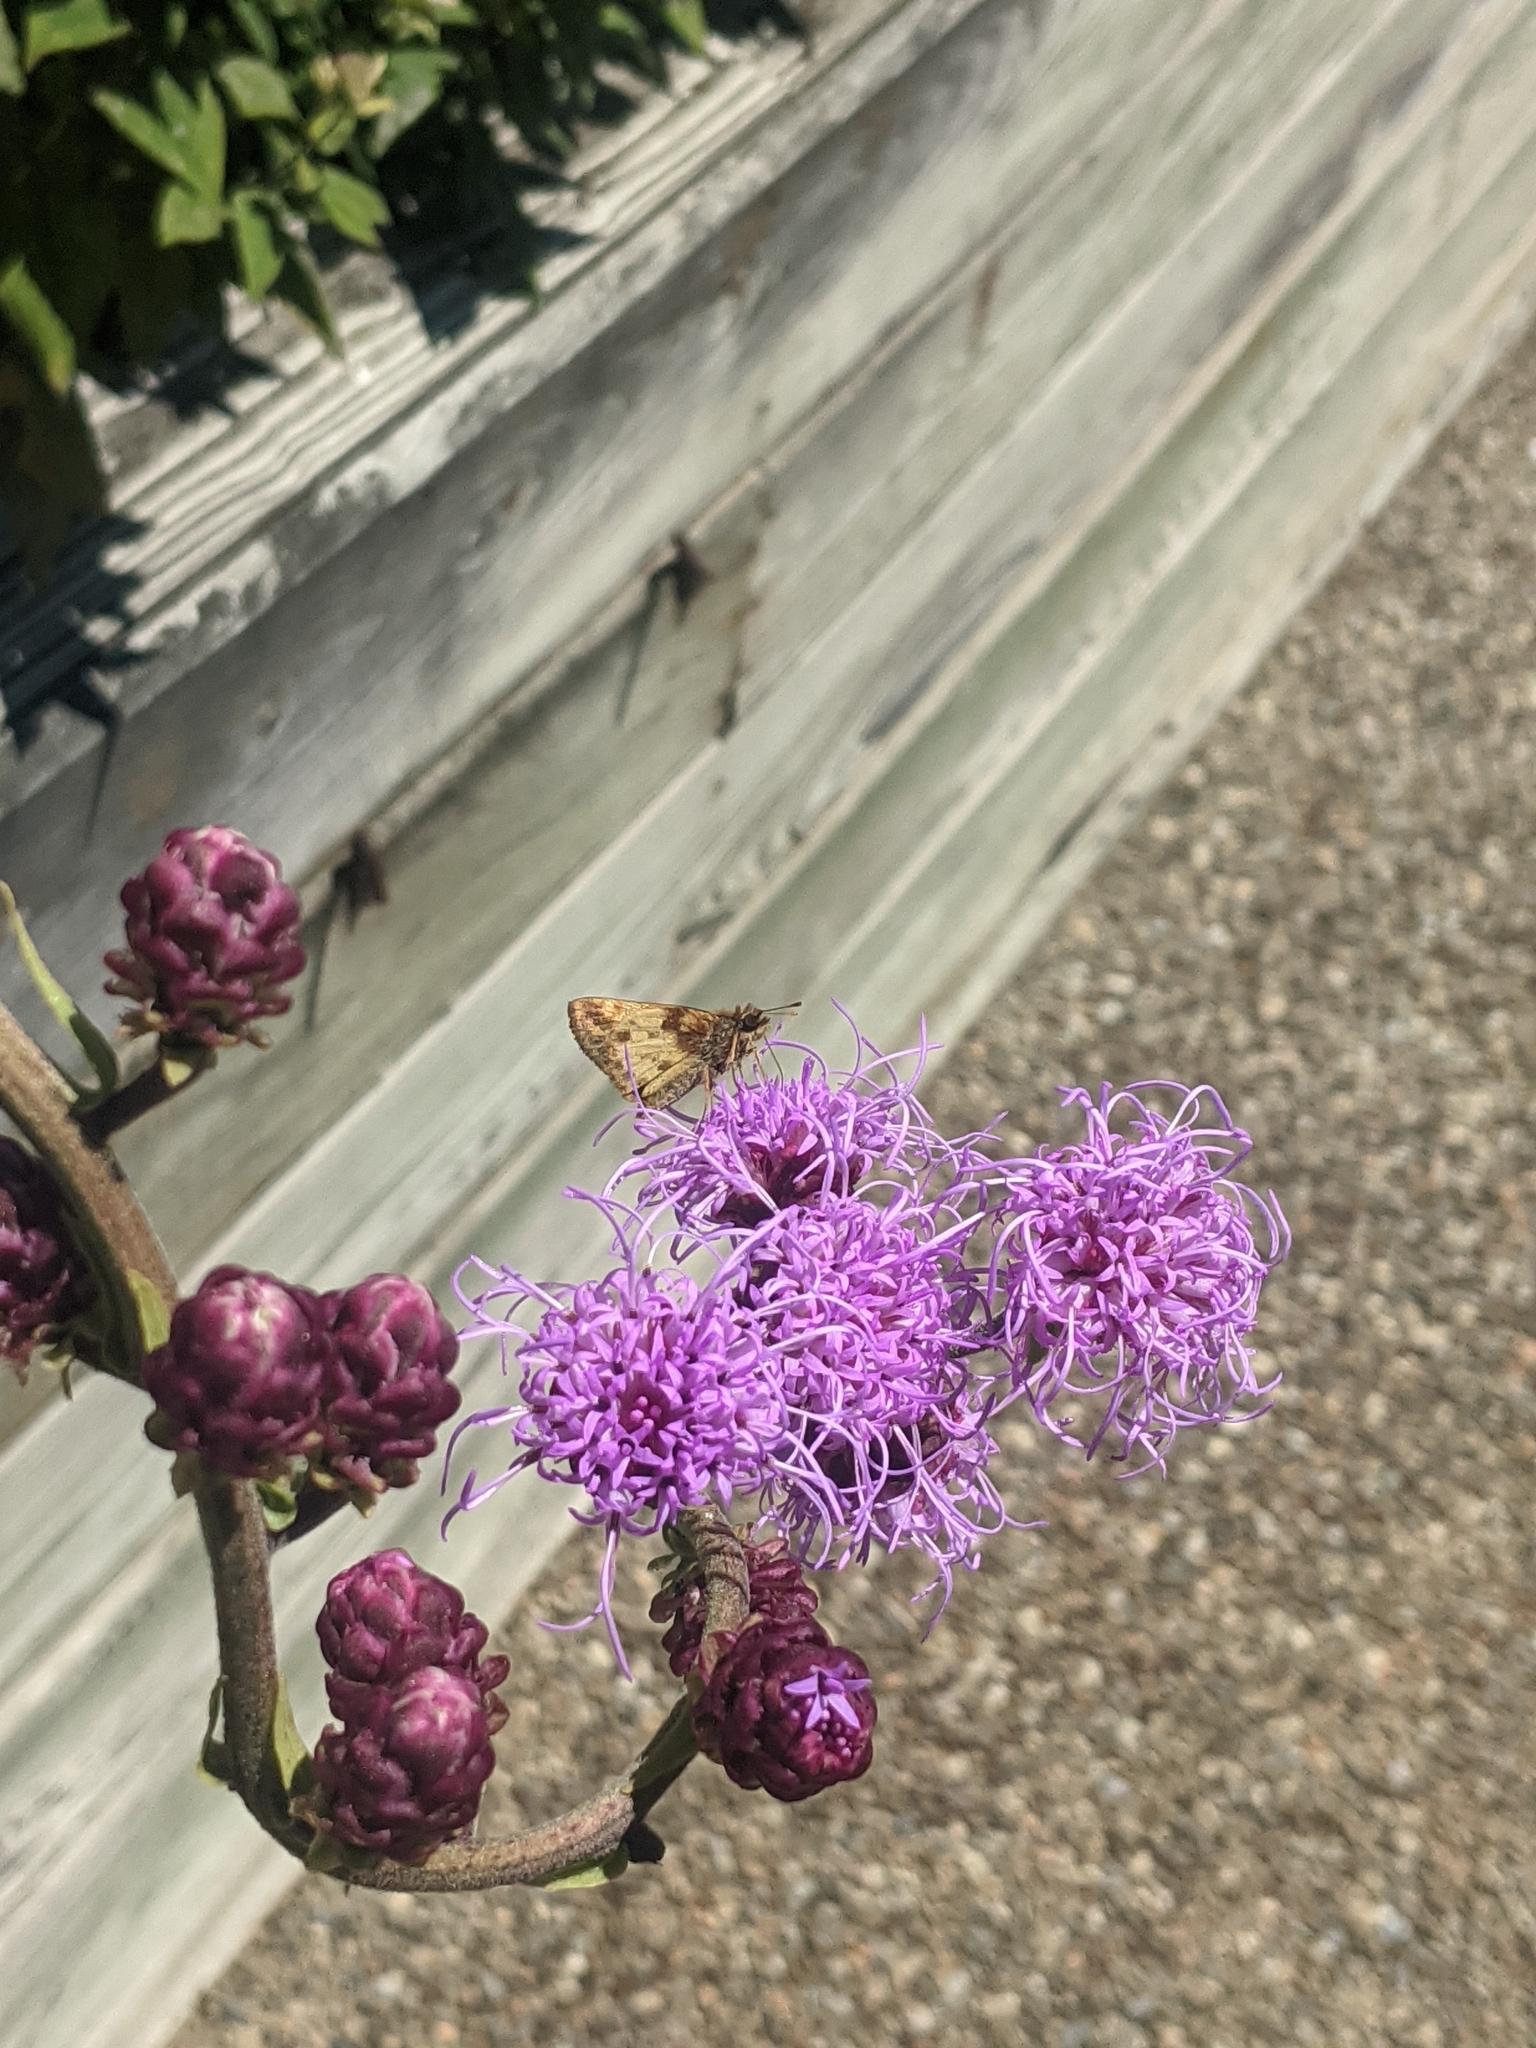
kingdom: Animalia
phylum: Arthropoda
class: Insecta
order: Lepidoptera
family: Hesperiidae
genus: Lon
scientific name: Lon zabulon
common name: Zabulon skipper
